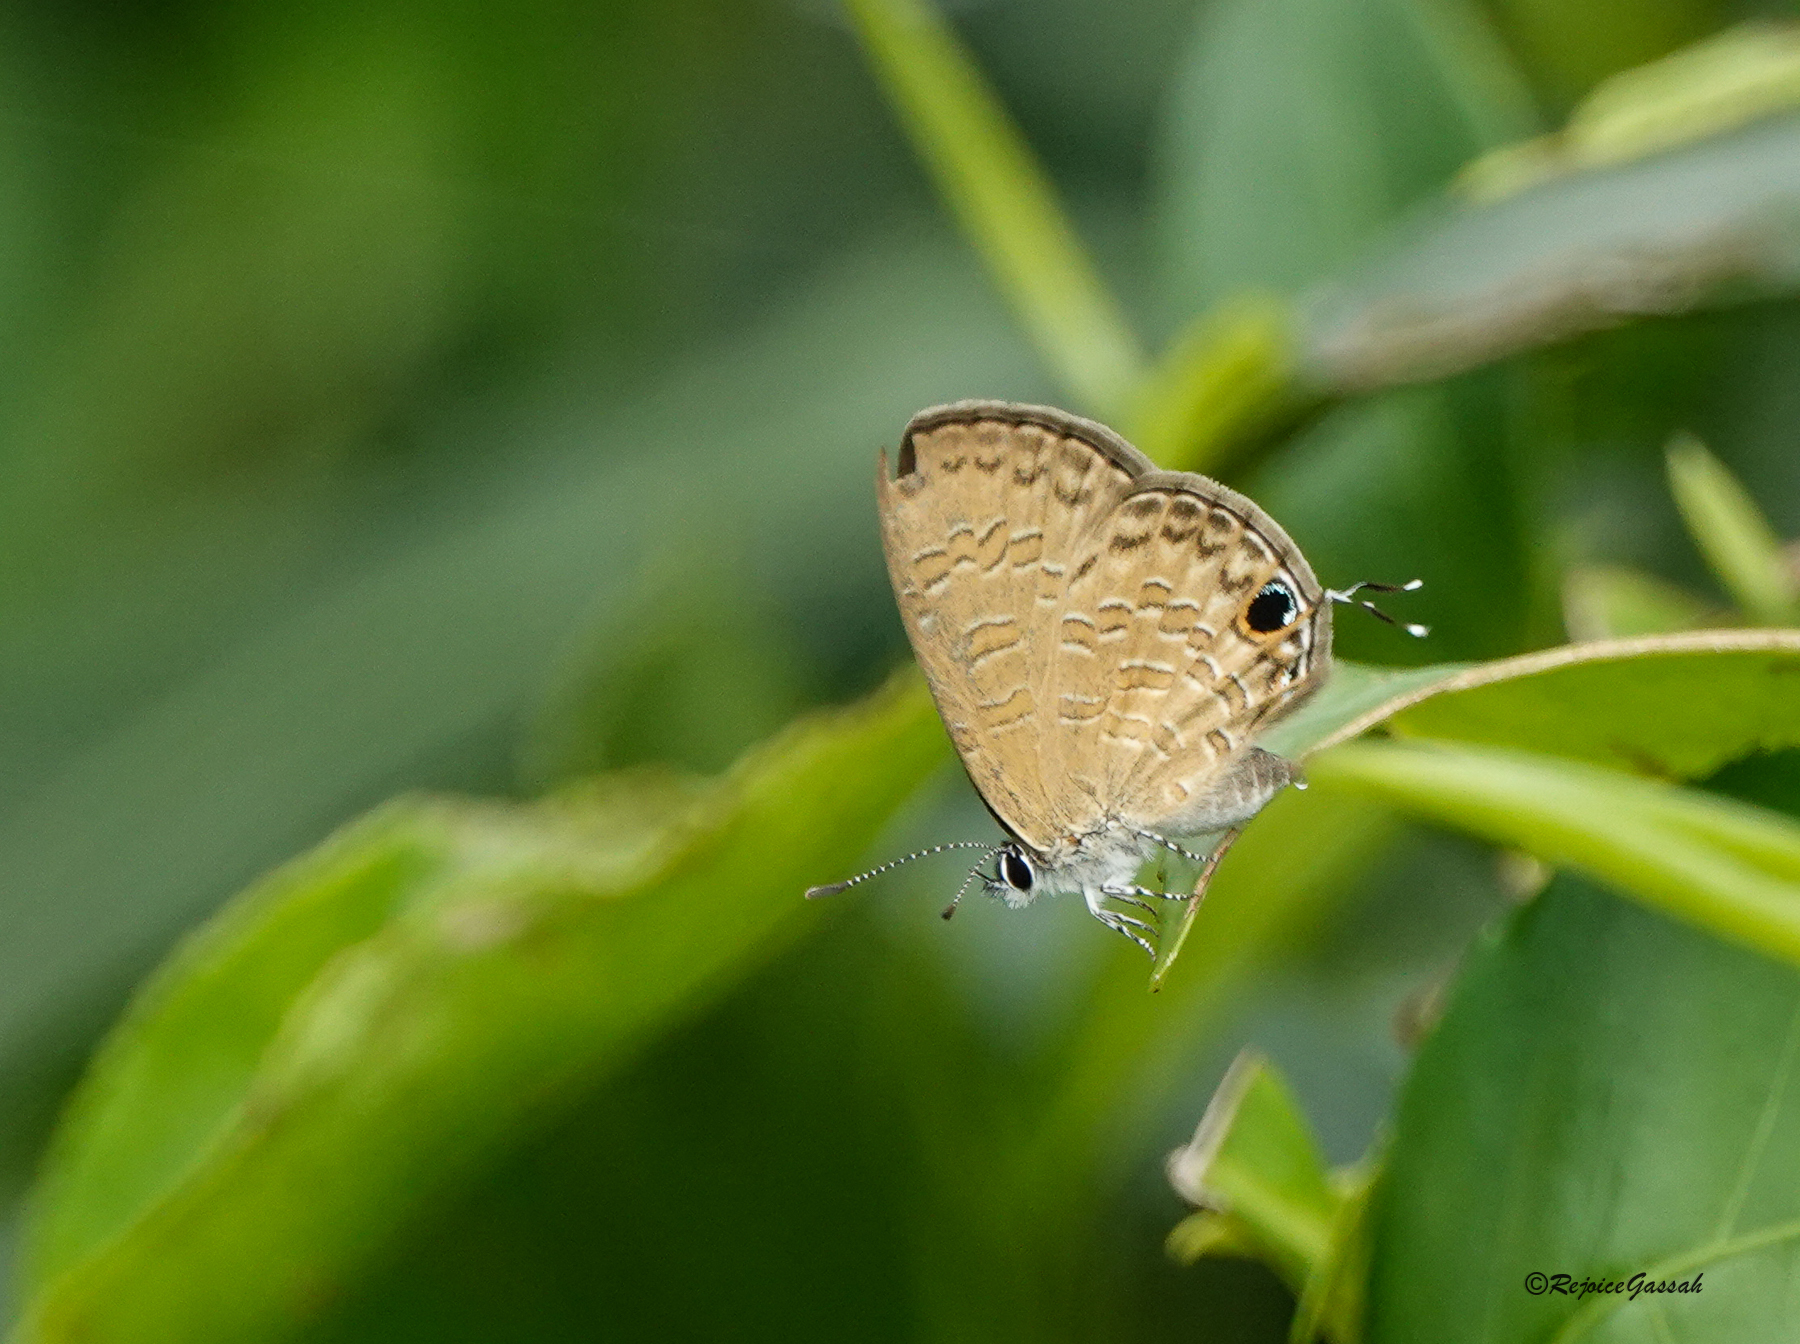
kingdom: Animalia
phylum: Arthropoda
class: Insecta
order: Lepidoptera
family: Lycaenidae
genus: Prosotas
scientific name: Prosotas nora
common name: Common line blue
